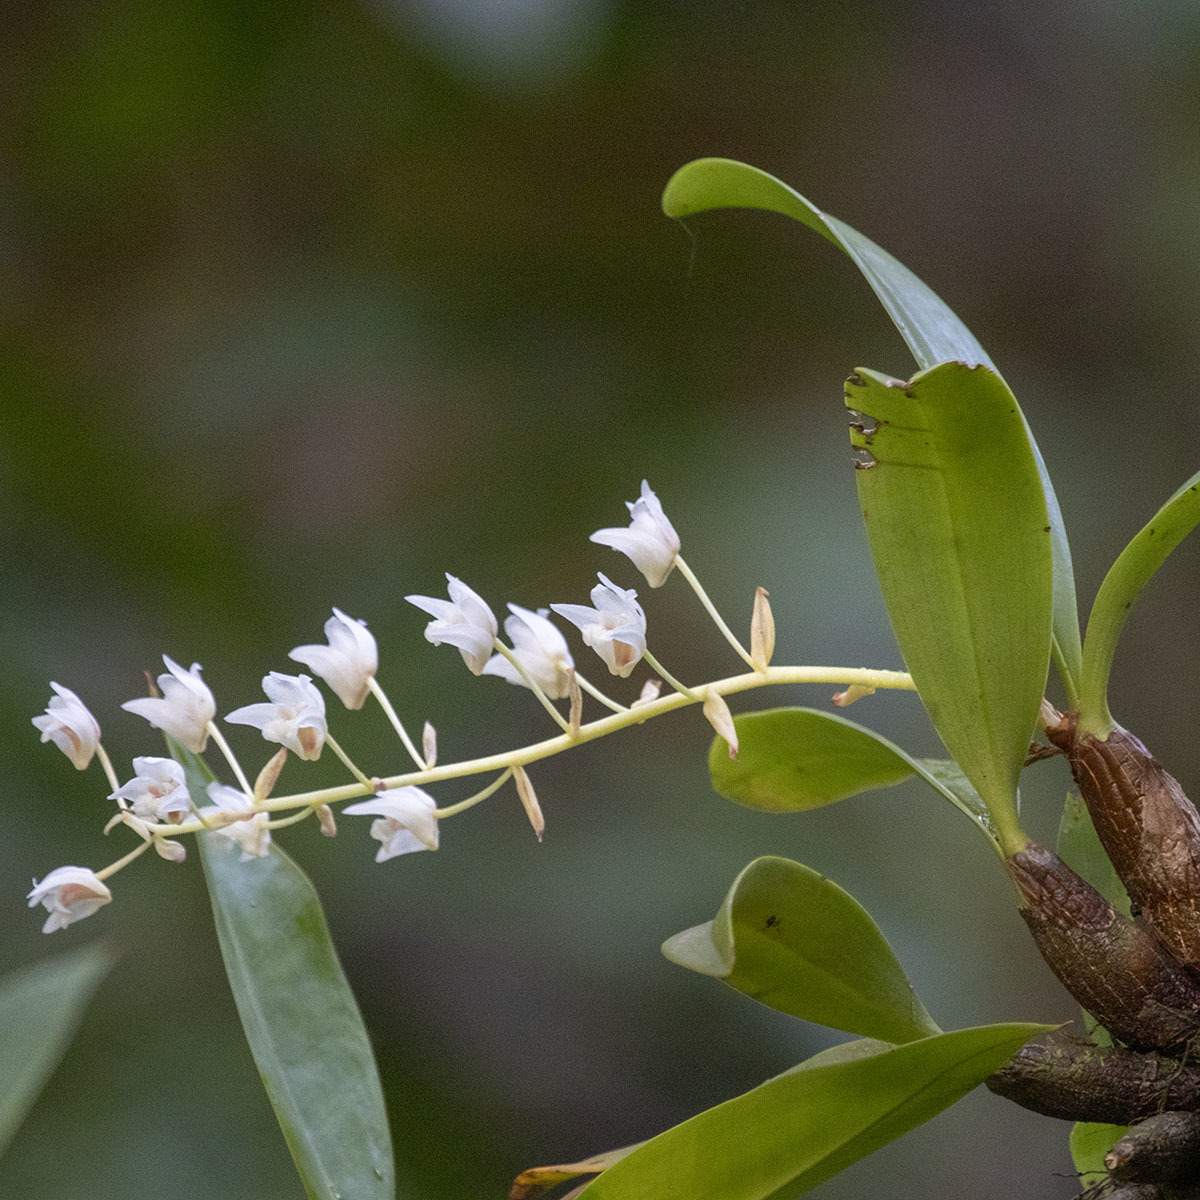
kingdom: Plantae
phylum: Tracheophyta
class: Liliopsida
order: Asparagales
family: Orchidaceae
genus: Pinalia
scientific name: Pinalia bractescens
